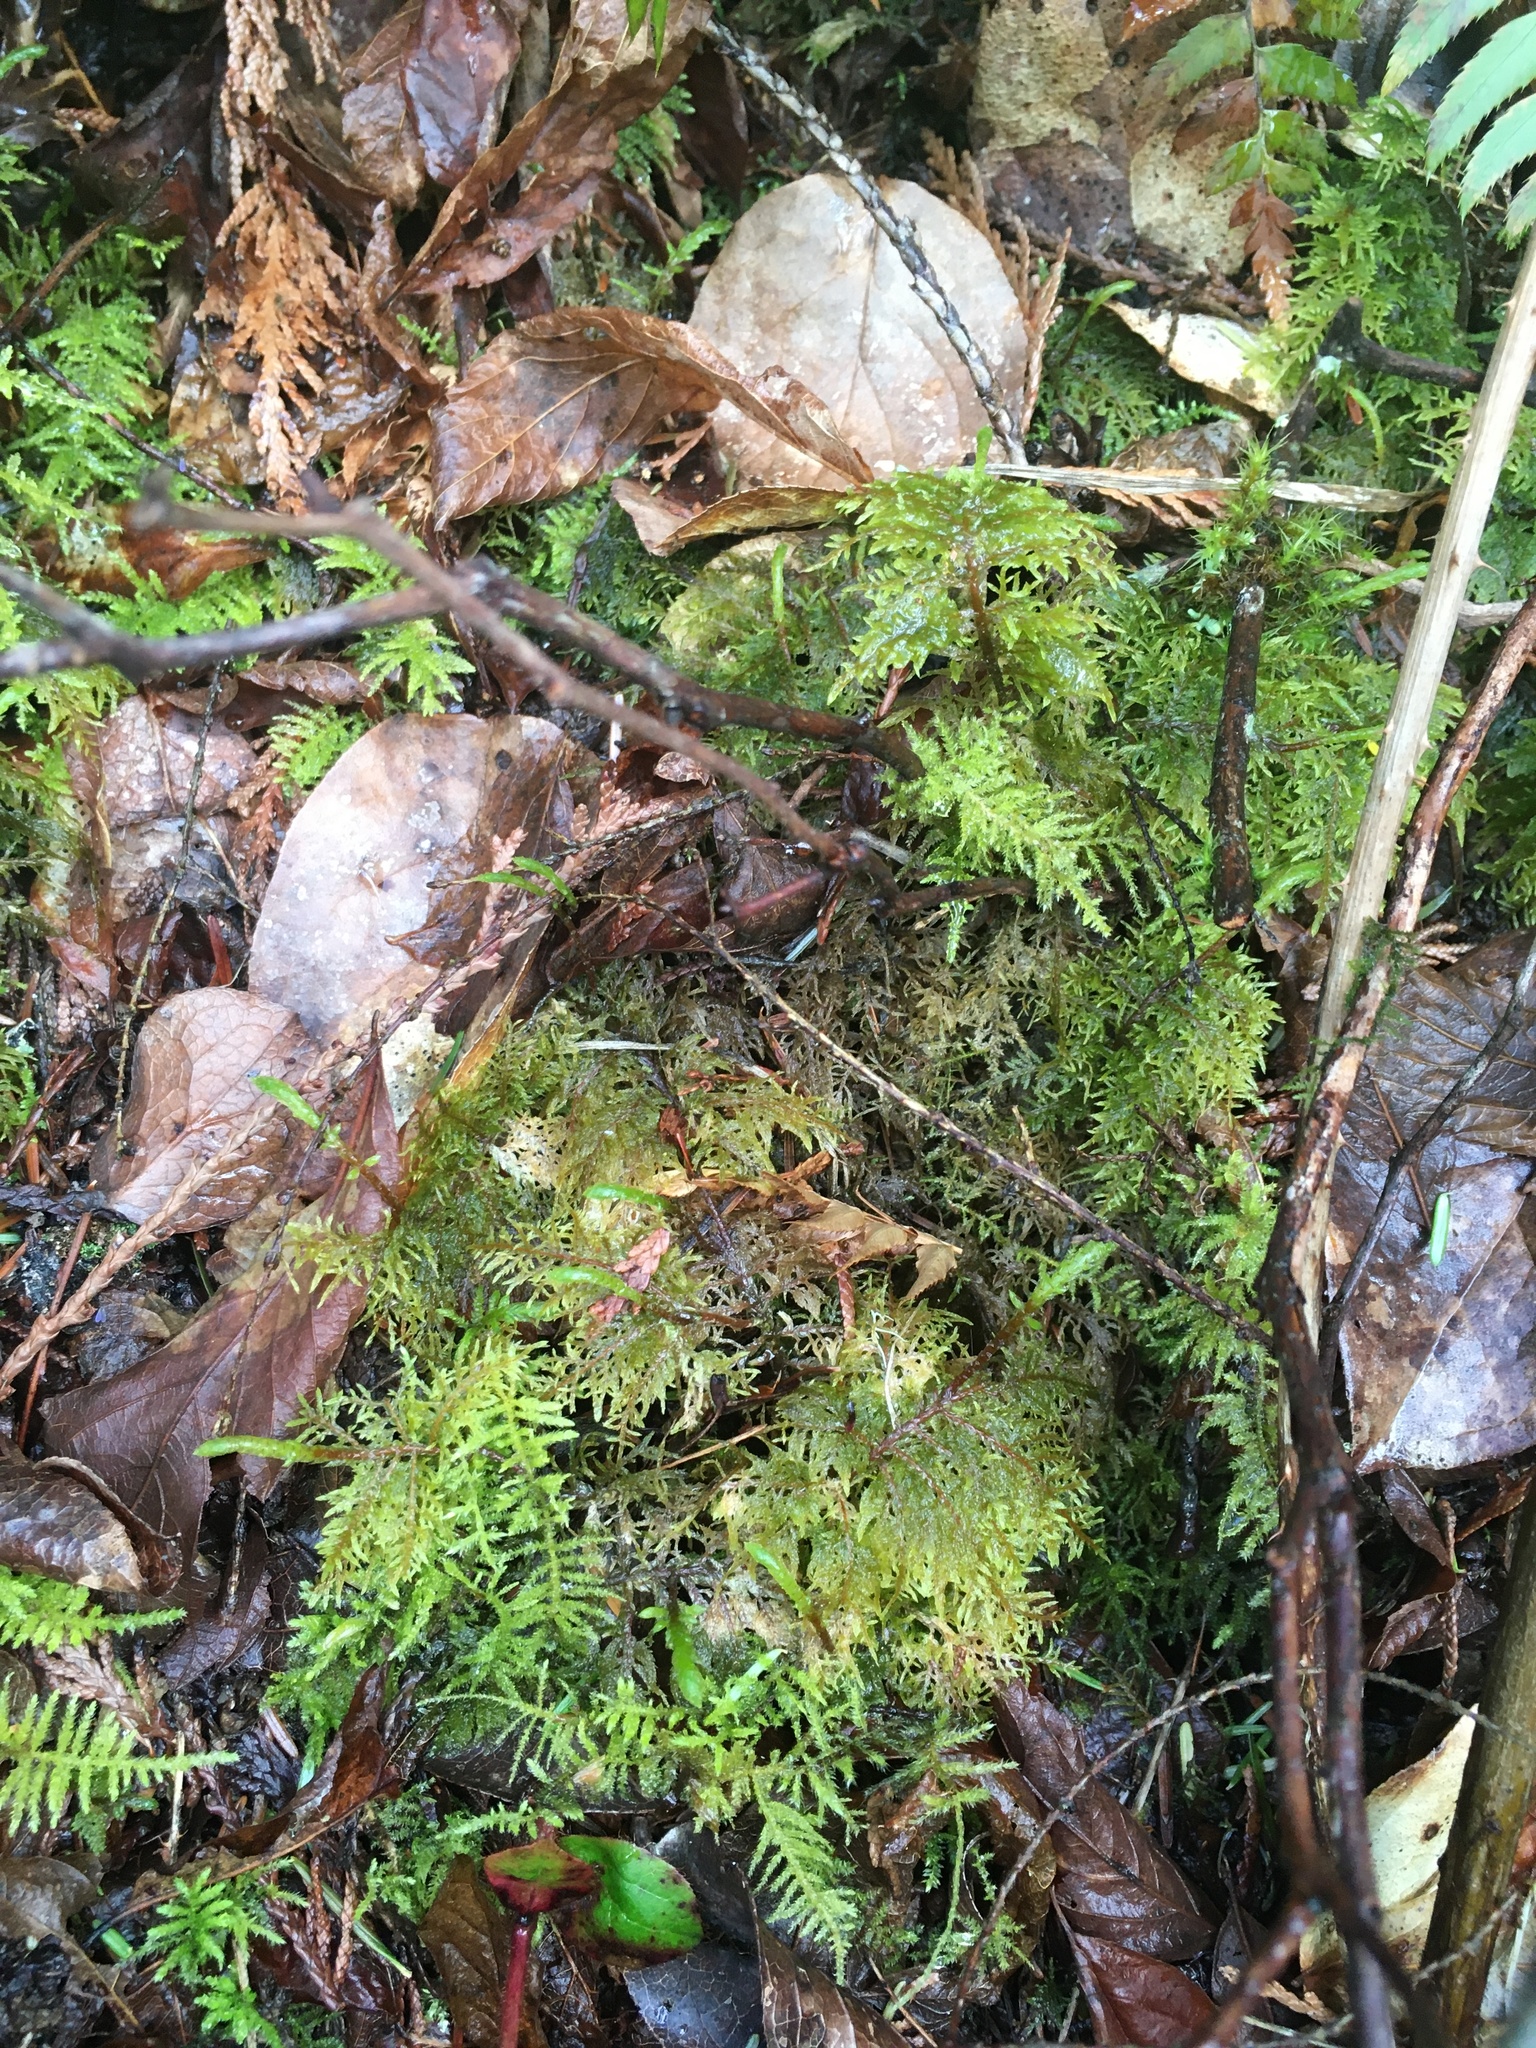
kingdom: Plantae
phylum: Bryophyta
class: Bryopsida
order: Hypnales
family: Hylocomiaceae
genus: Hylocomium
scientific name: Hylocomium splendens
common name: Stairstep moss
